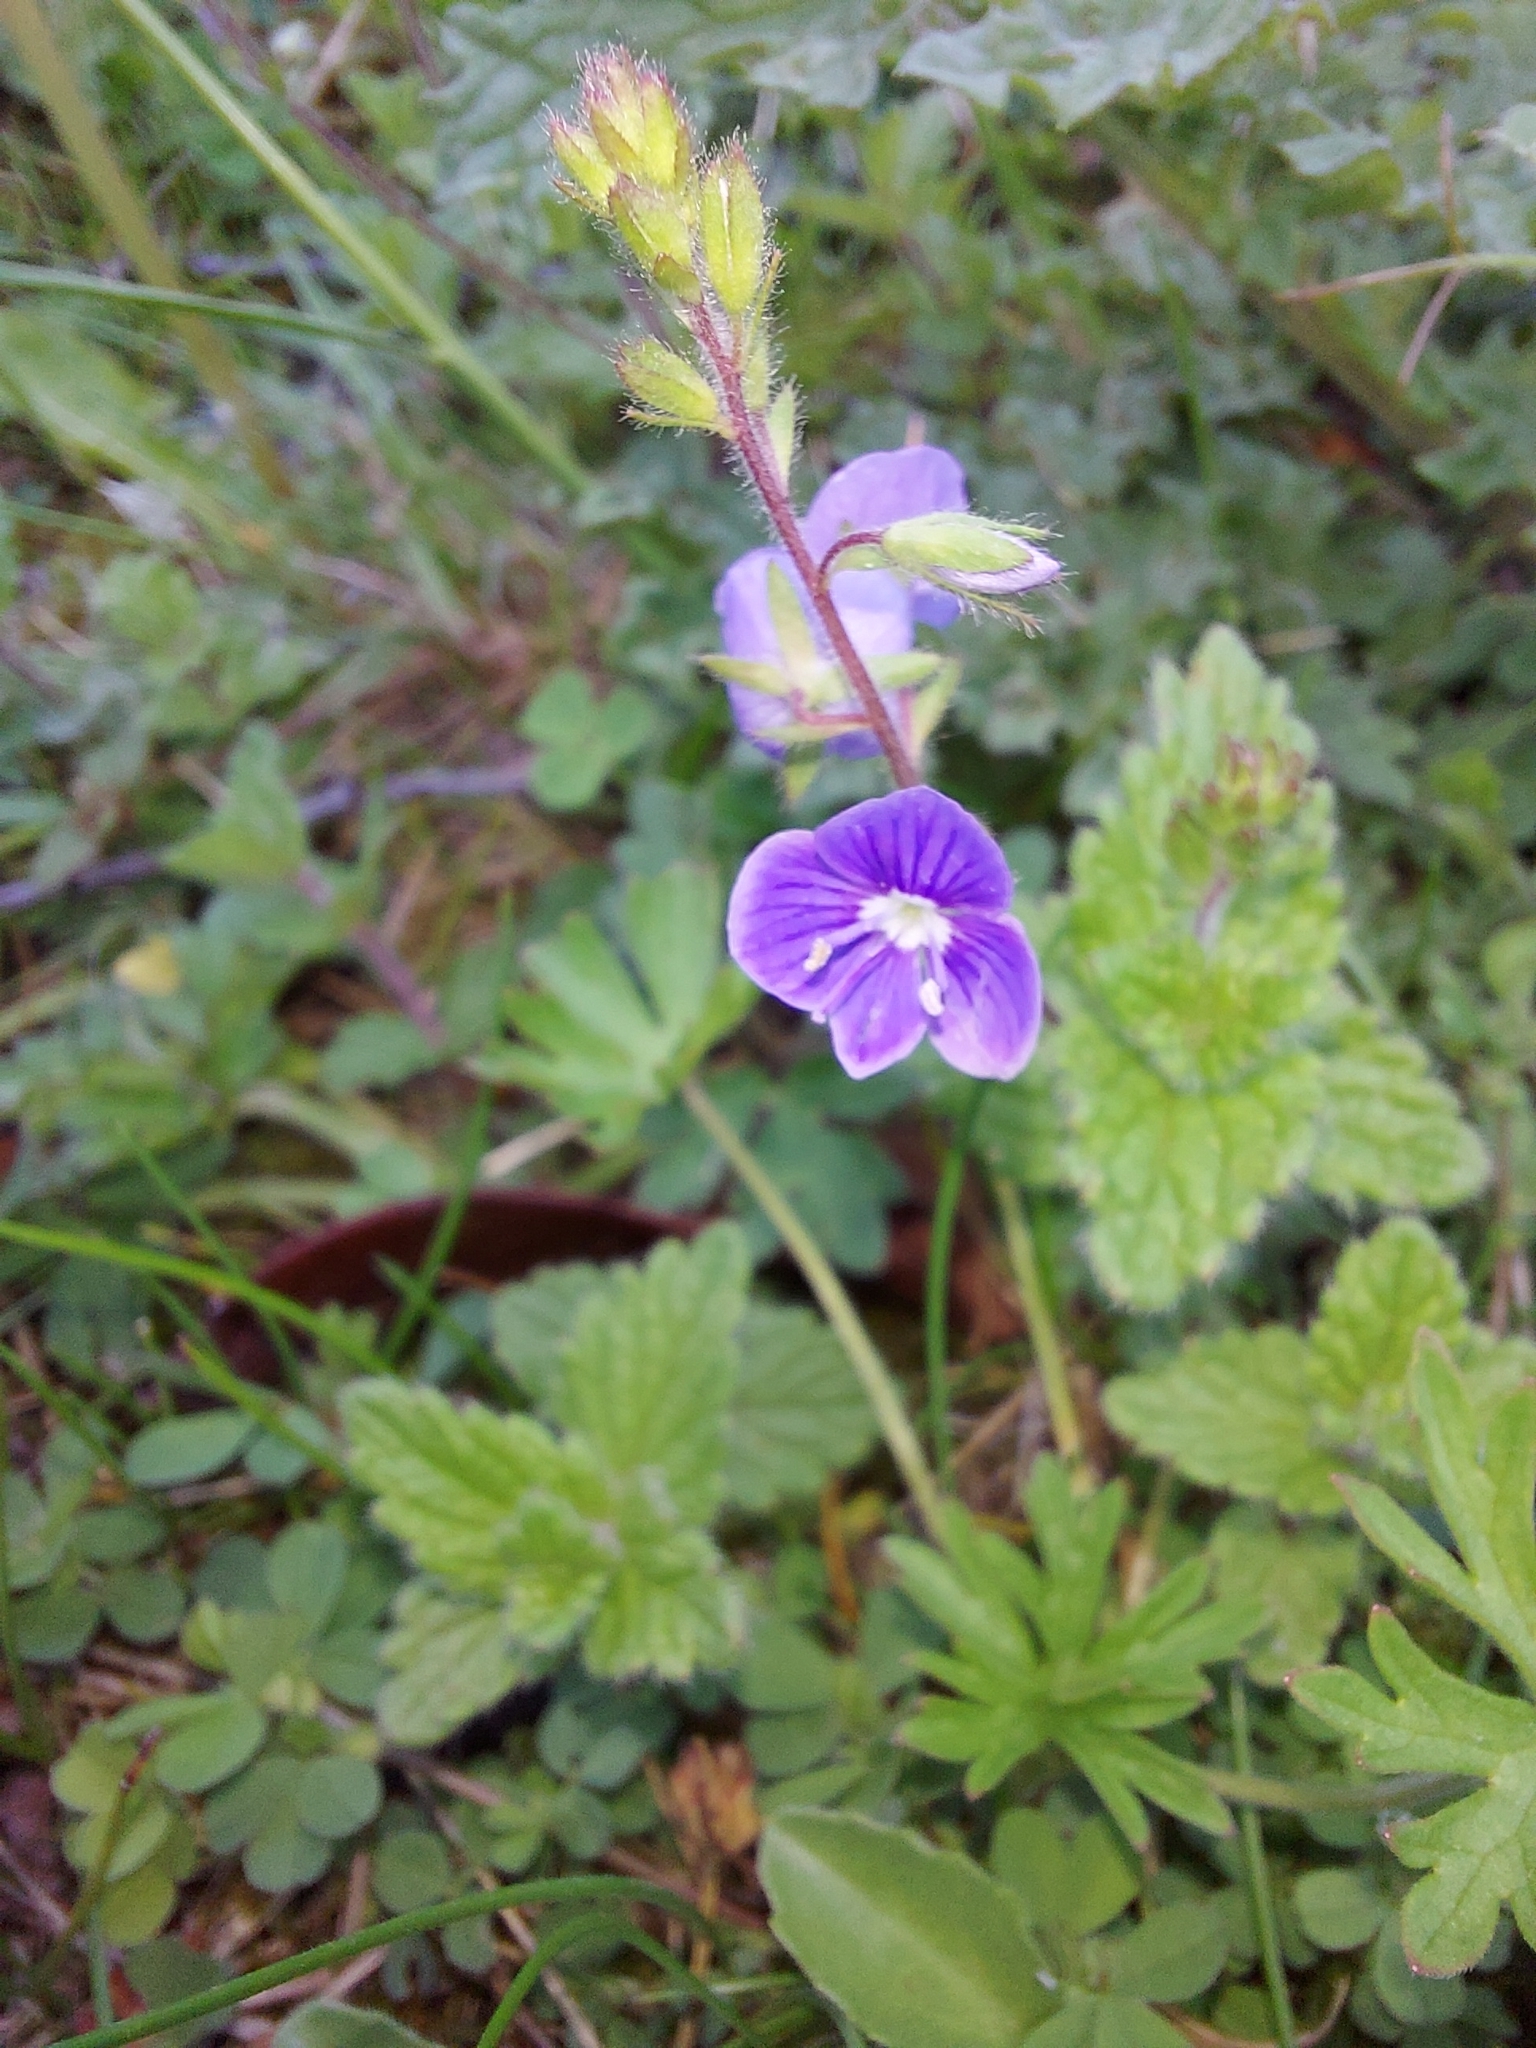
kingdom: Plantae
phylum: Tracheophyta
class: Magnoliopsida
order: Lamiales
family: Plantaginaceae
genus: Veronica
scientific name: Veronica chamaedrys
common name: Germander speedwell
